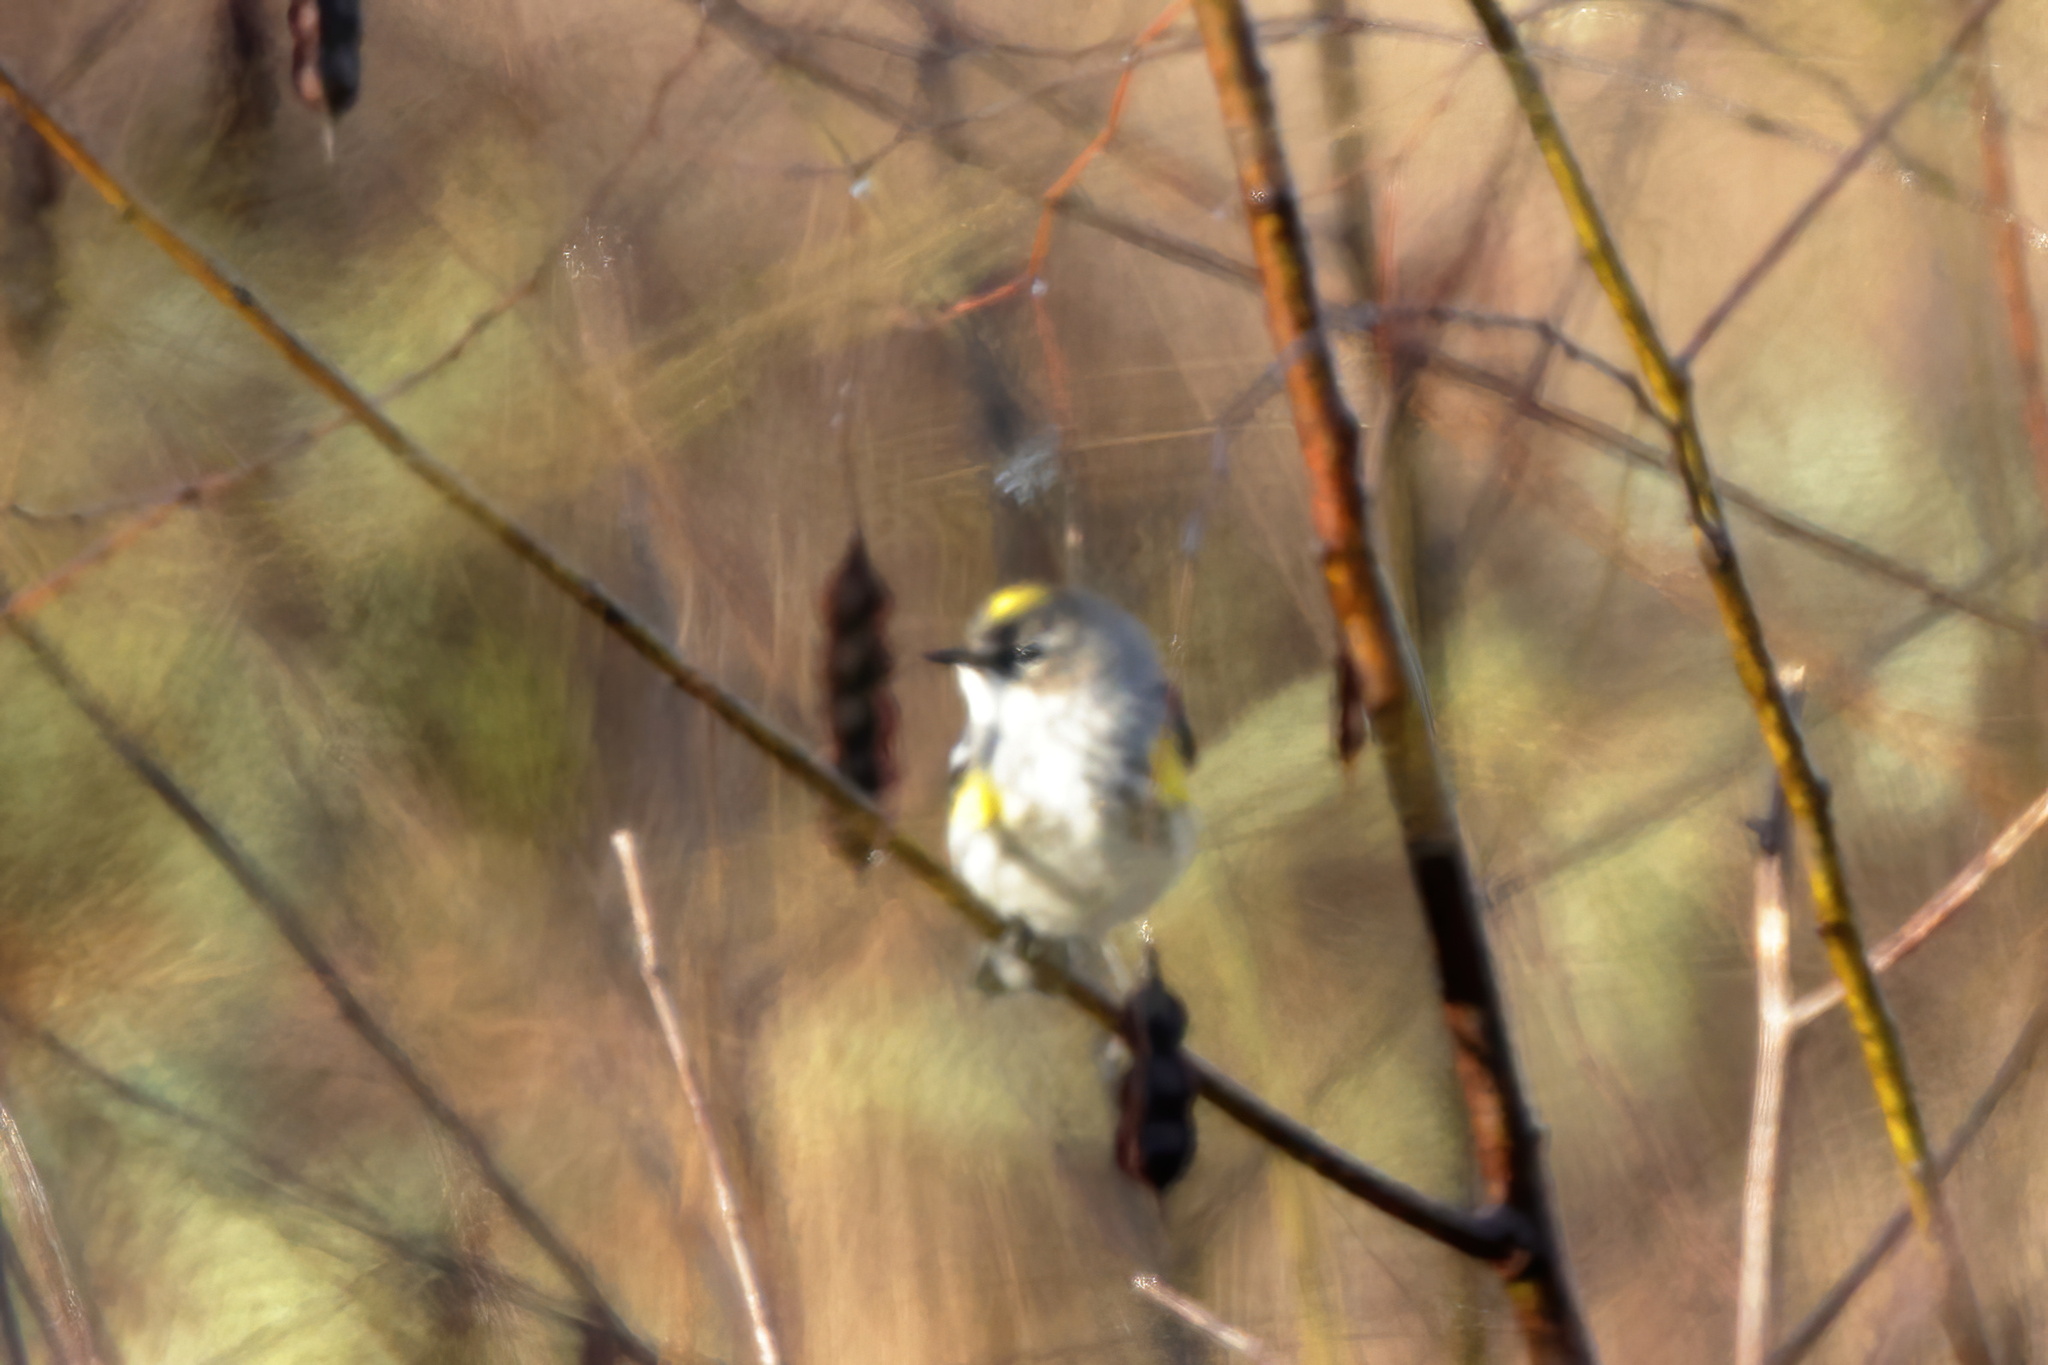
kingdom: Animalia
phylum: Chordata
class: Aves
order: Passeriformes
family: Parulidae
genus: Setophaga
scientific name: Setophaga coronata
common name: Myrtle warbler
